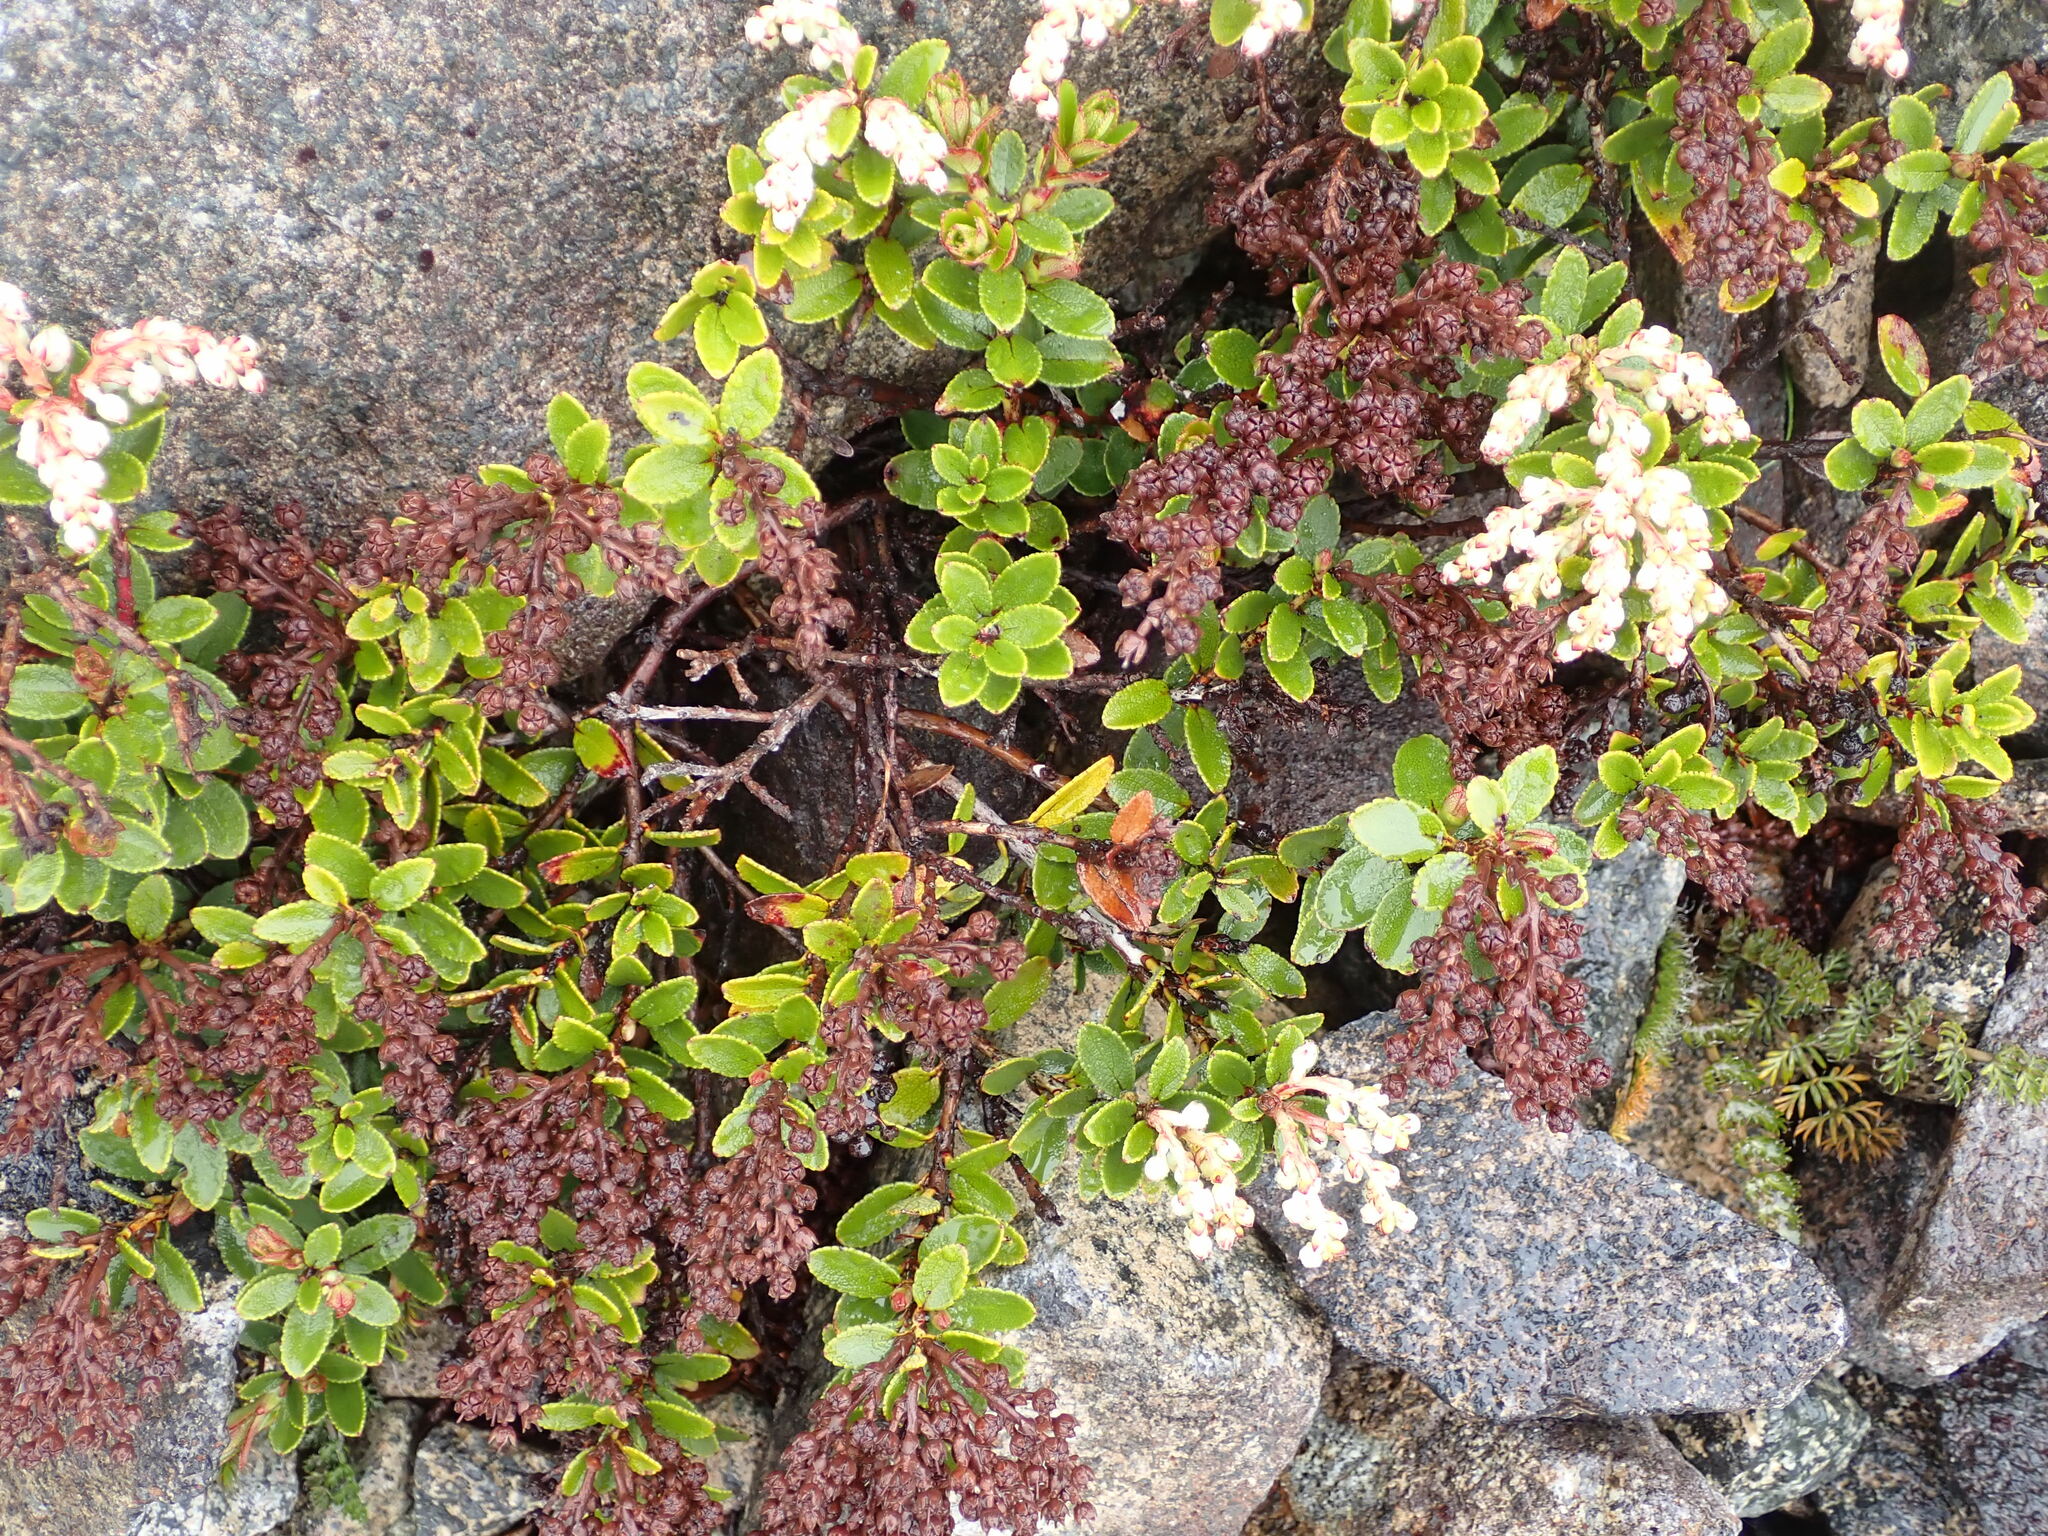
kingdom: Plantae
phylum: Tracheophyta
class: Magnoliopsida
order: Ericales
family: Ericaceae
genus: Gaultheria
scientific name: Gaultheria crassa
